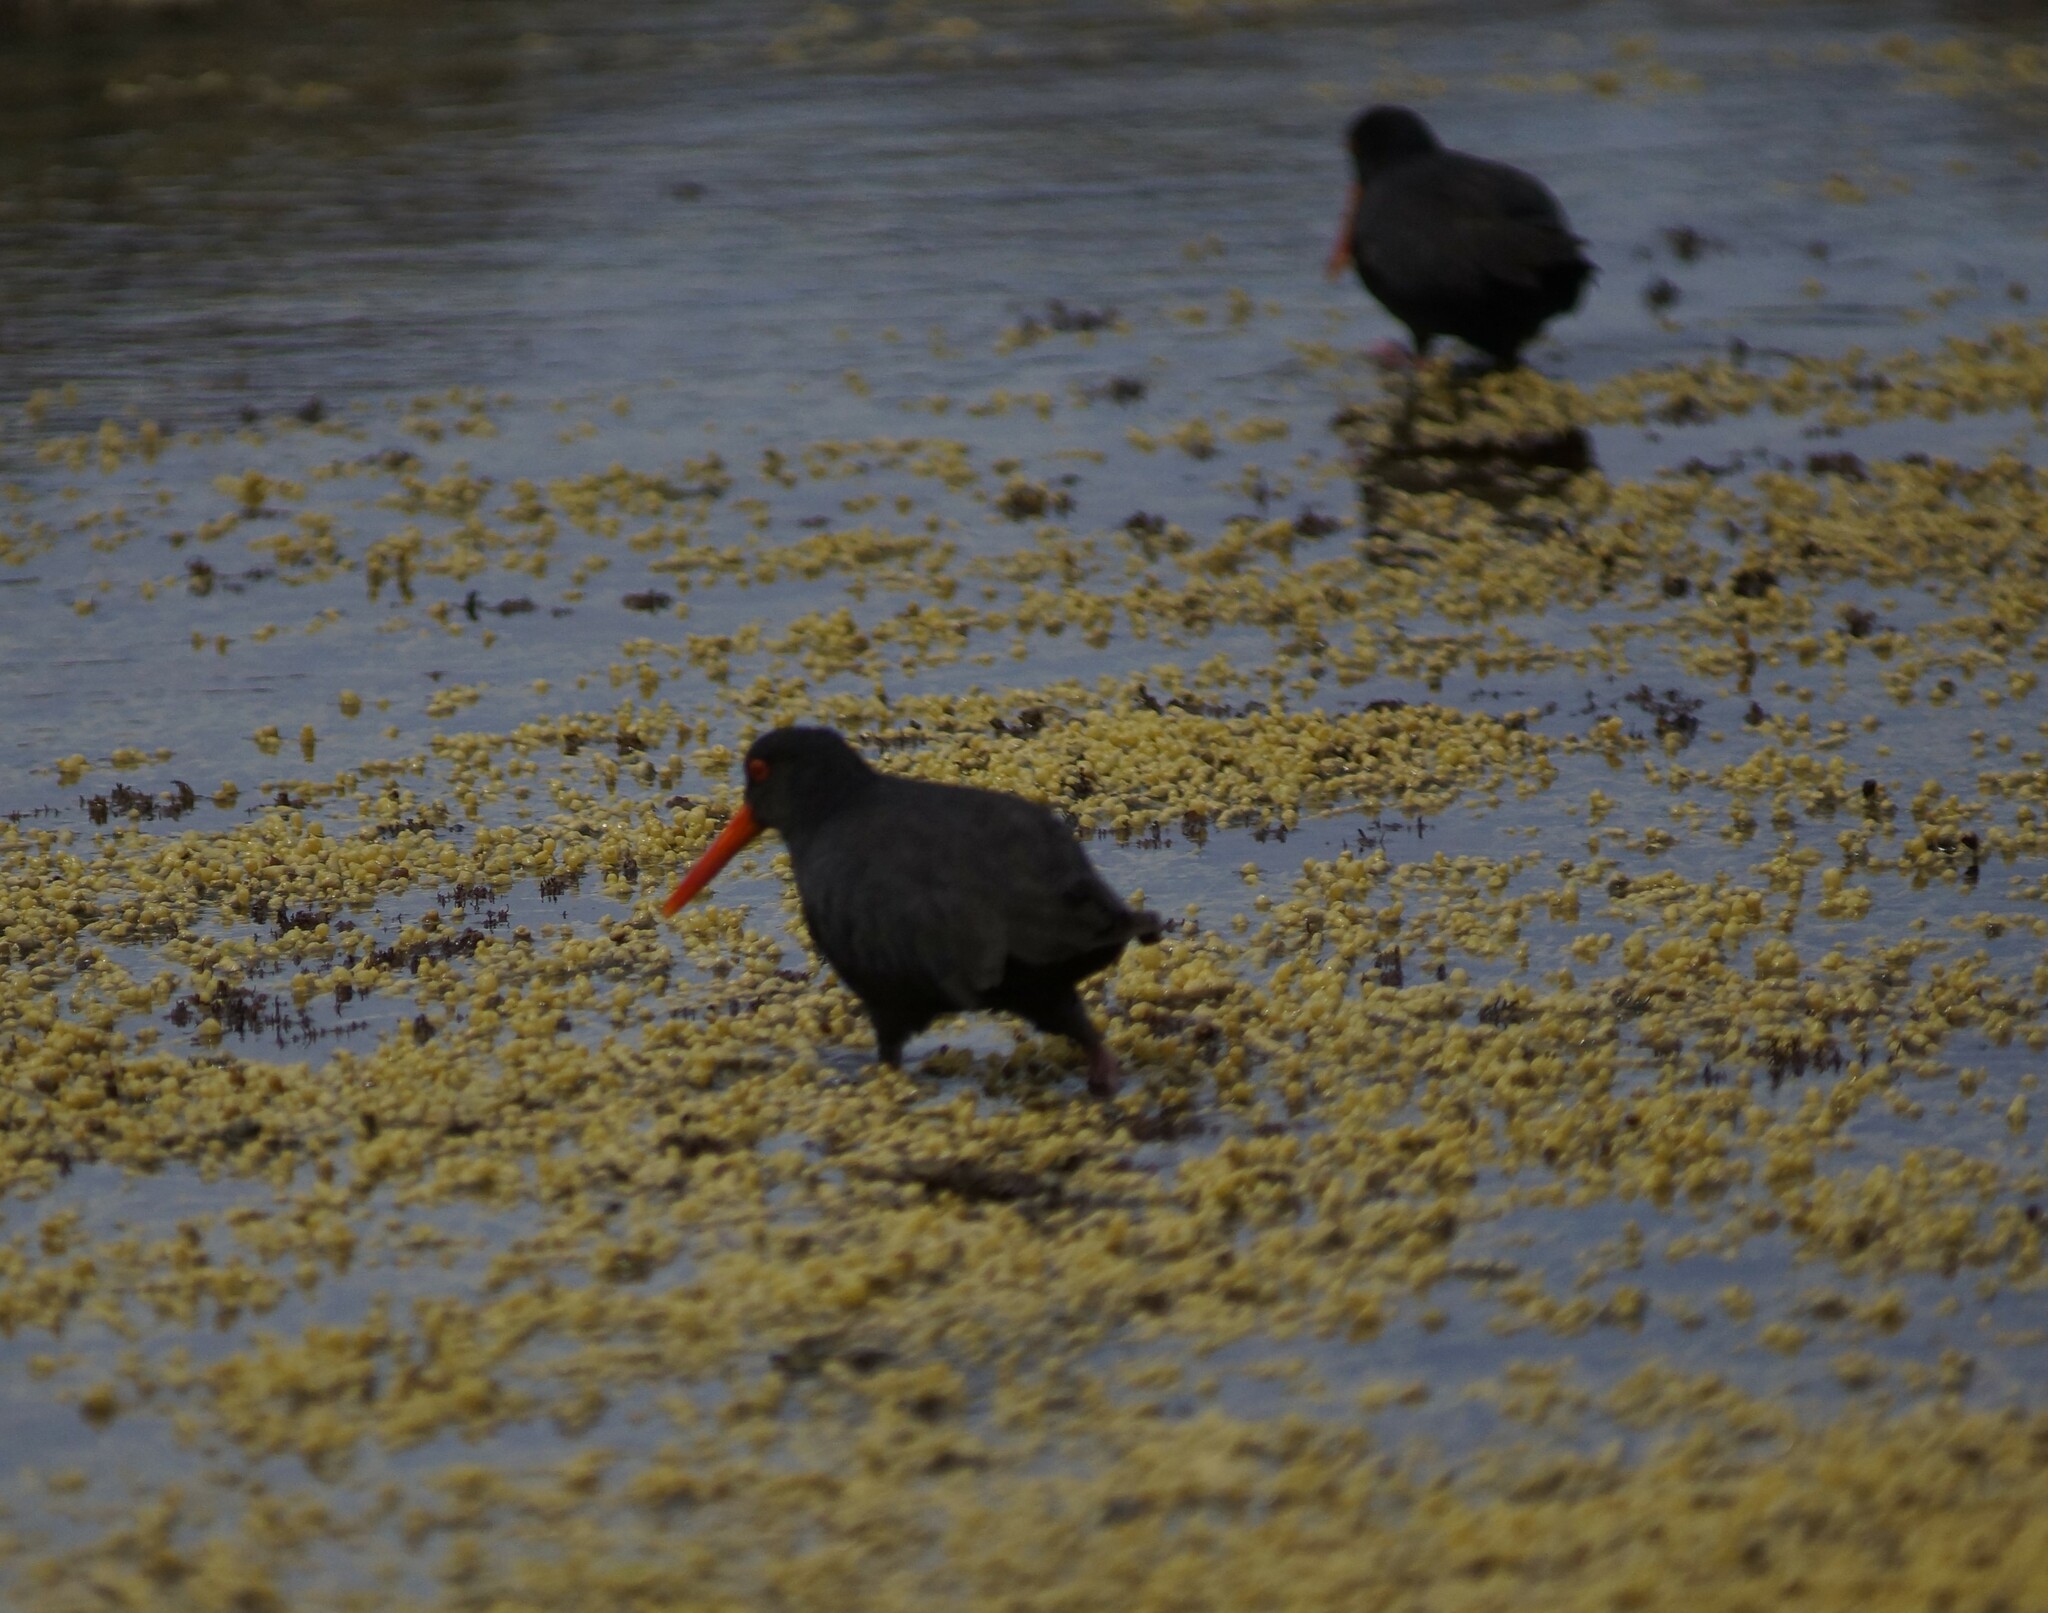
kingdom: Animalia
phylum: Chordata
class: Aves
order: Charadriiformes
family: Haematopodidae
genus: Haematopus
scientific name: Haematopus unicolor
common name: Variable oystercatcher
